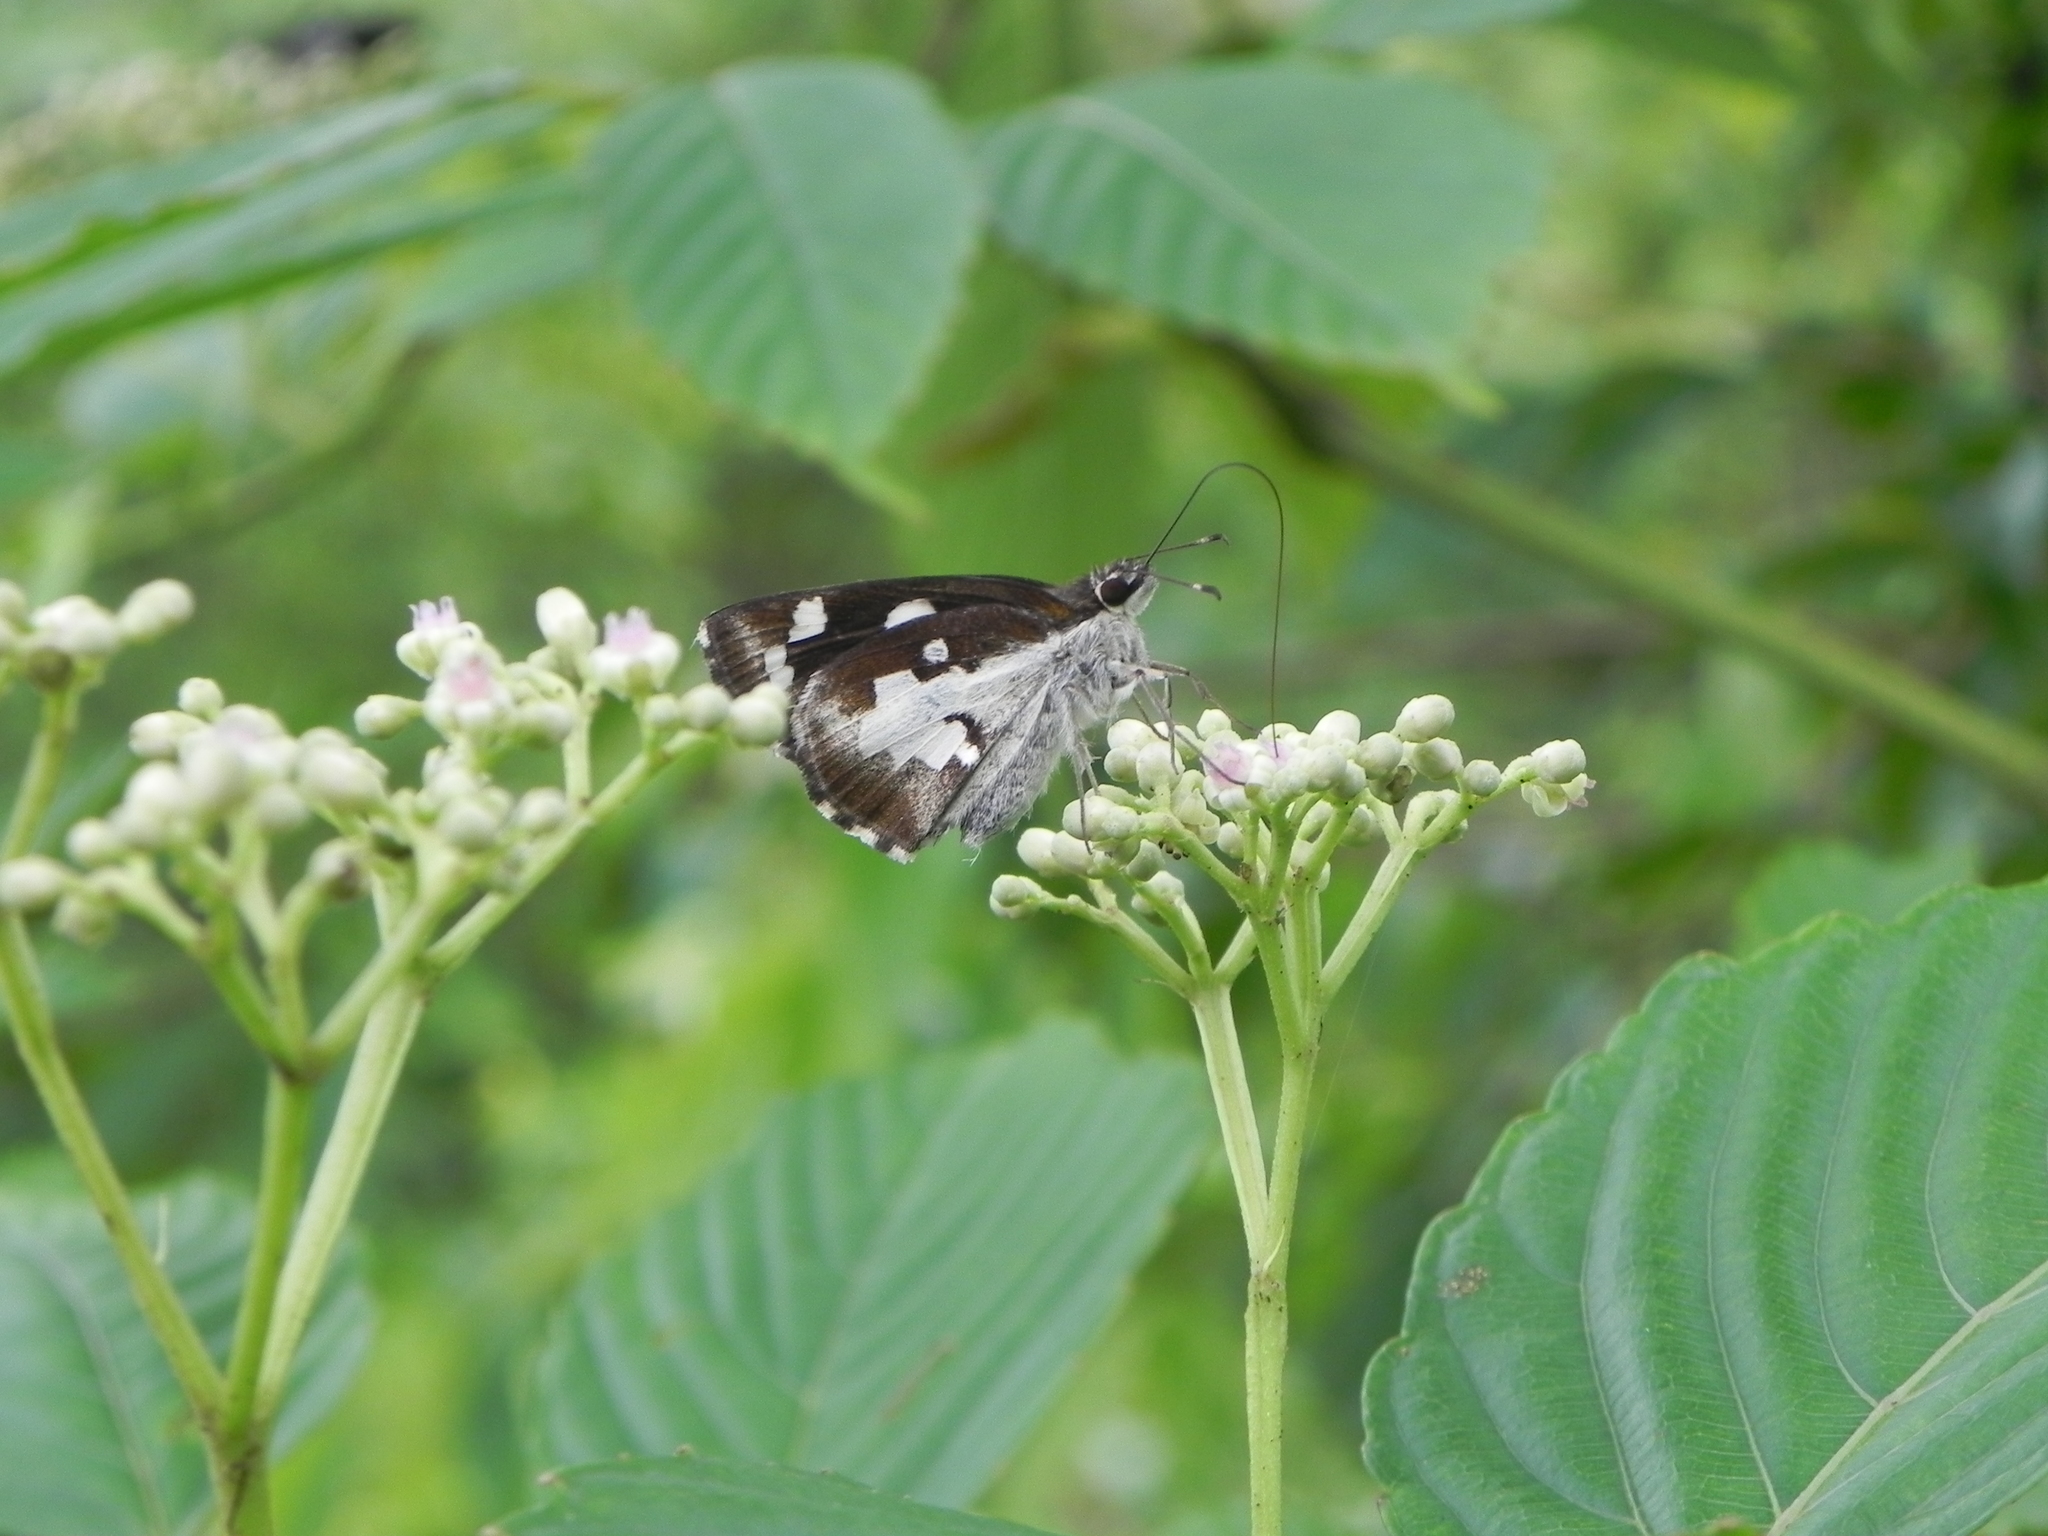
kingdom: Animalia
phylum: Arthropoda
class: Insecta
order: Lepidoptera
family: Hesperiidae
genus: Udaspes
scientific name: Udaspes folus
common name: Grass demon
